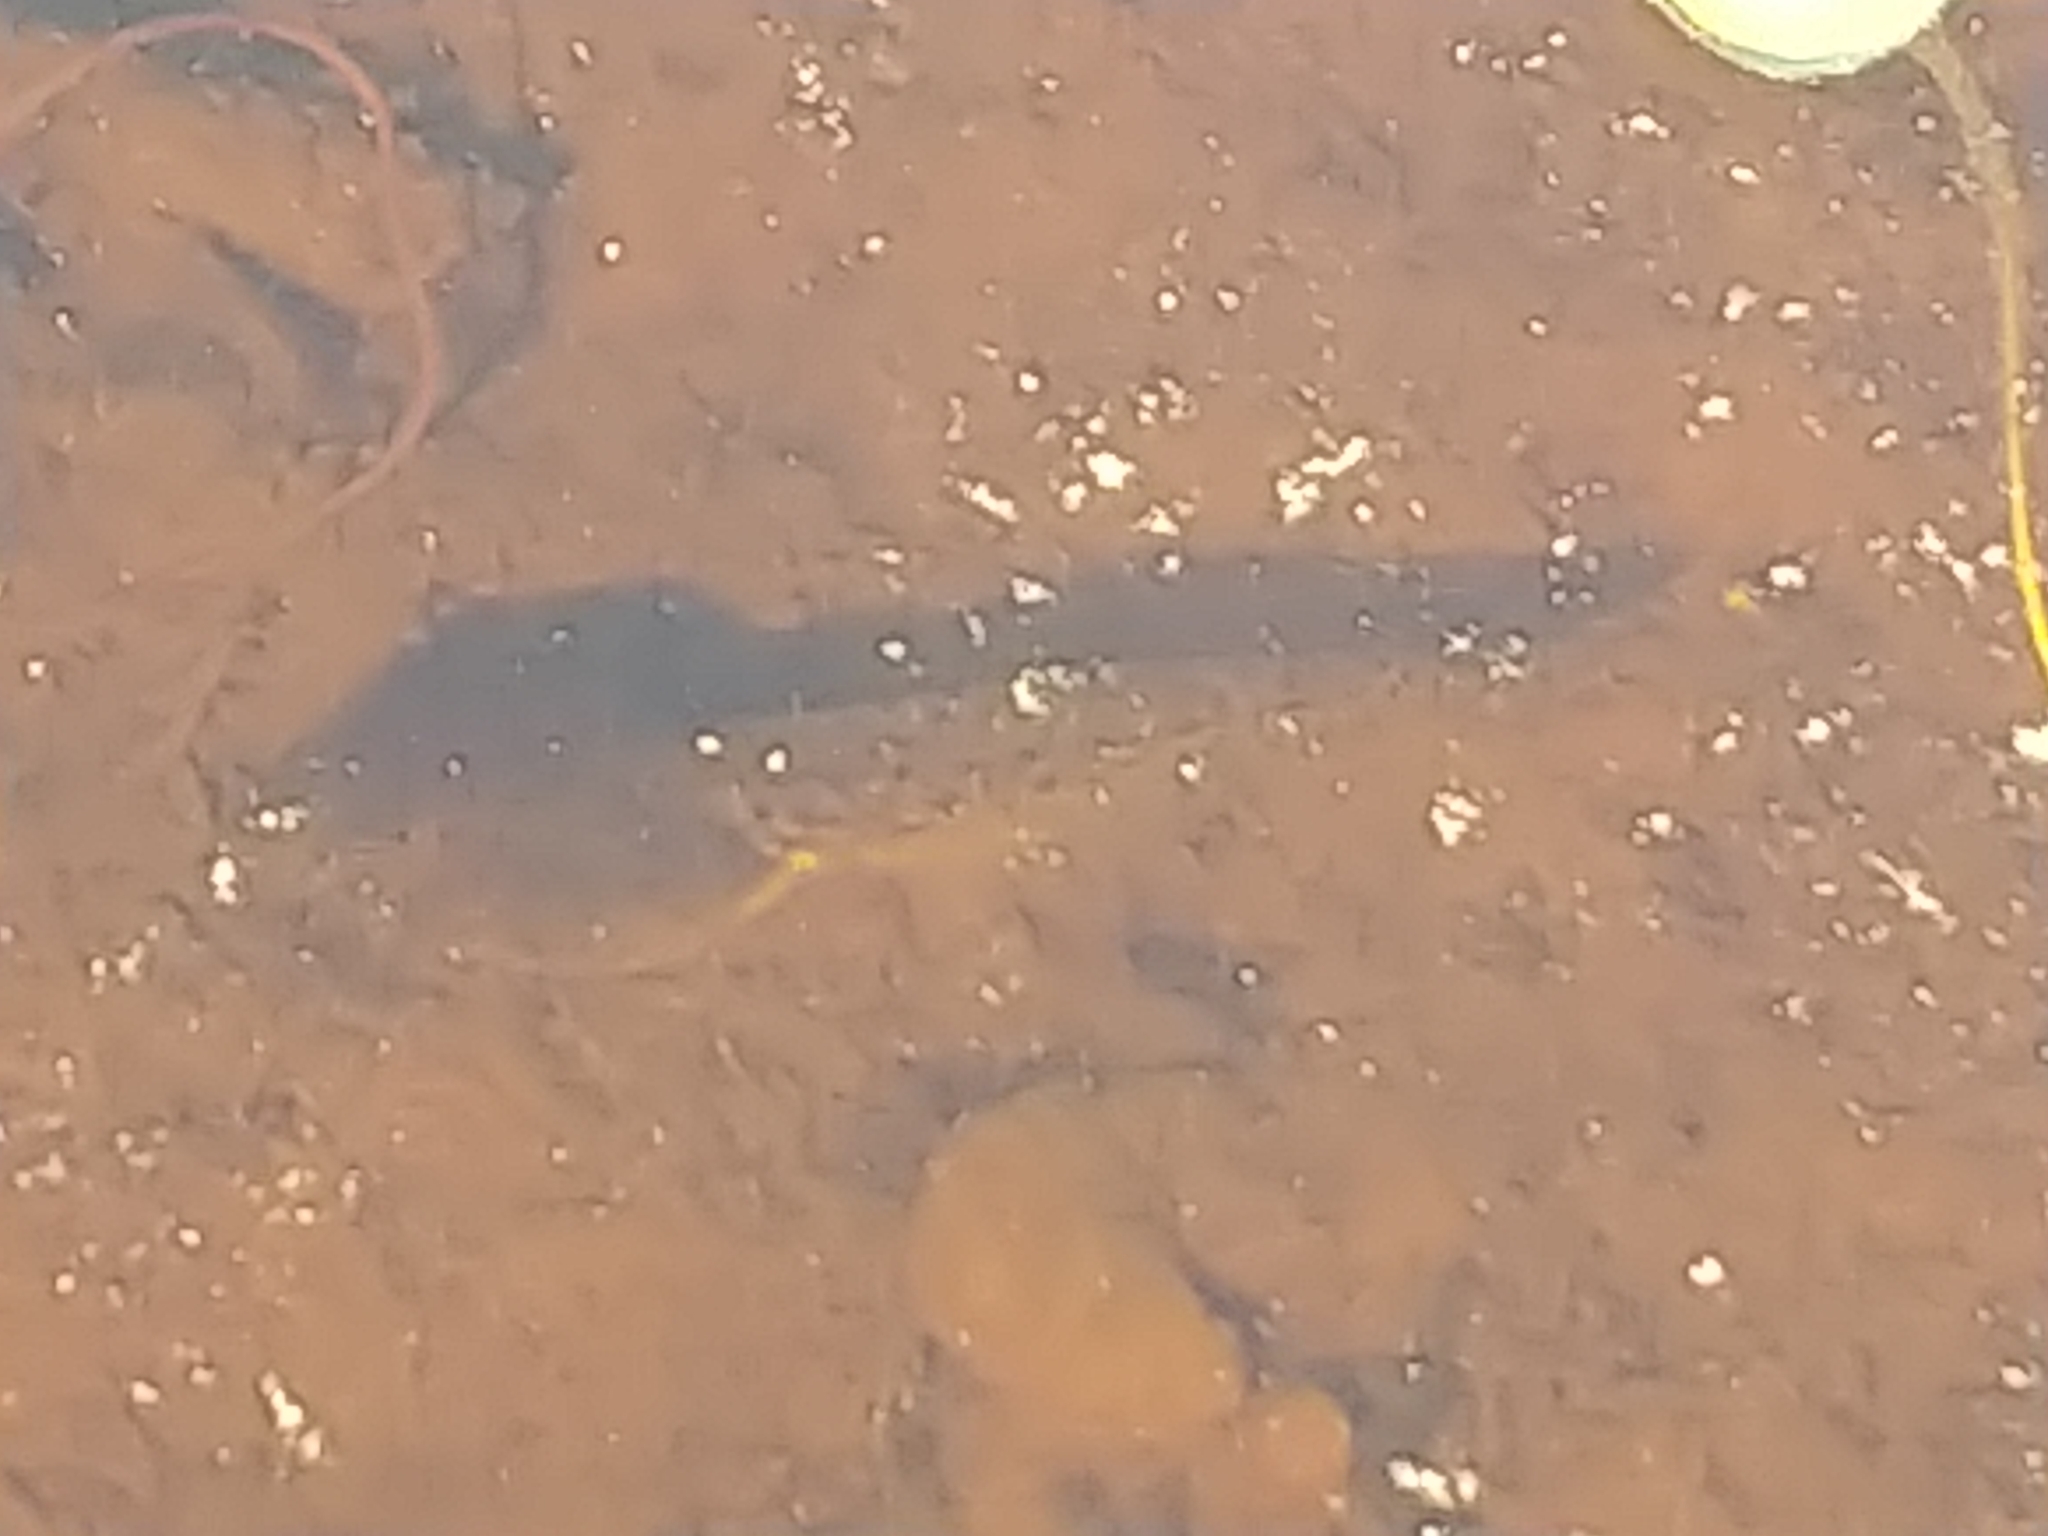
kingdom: Animalia
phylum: Chordata
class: Amphibia
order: Anura
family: Ranidae
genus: Lithobates
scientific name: Lithobates catesbeianus
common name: American bullfrog
